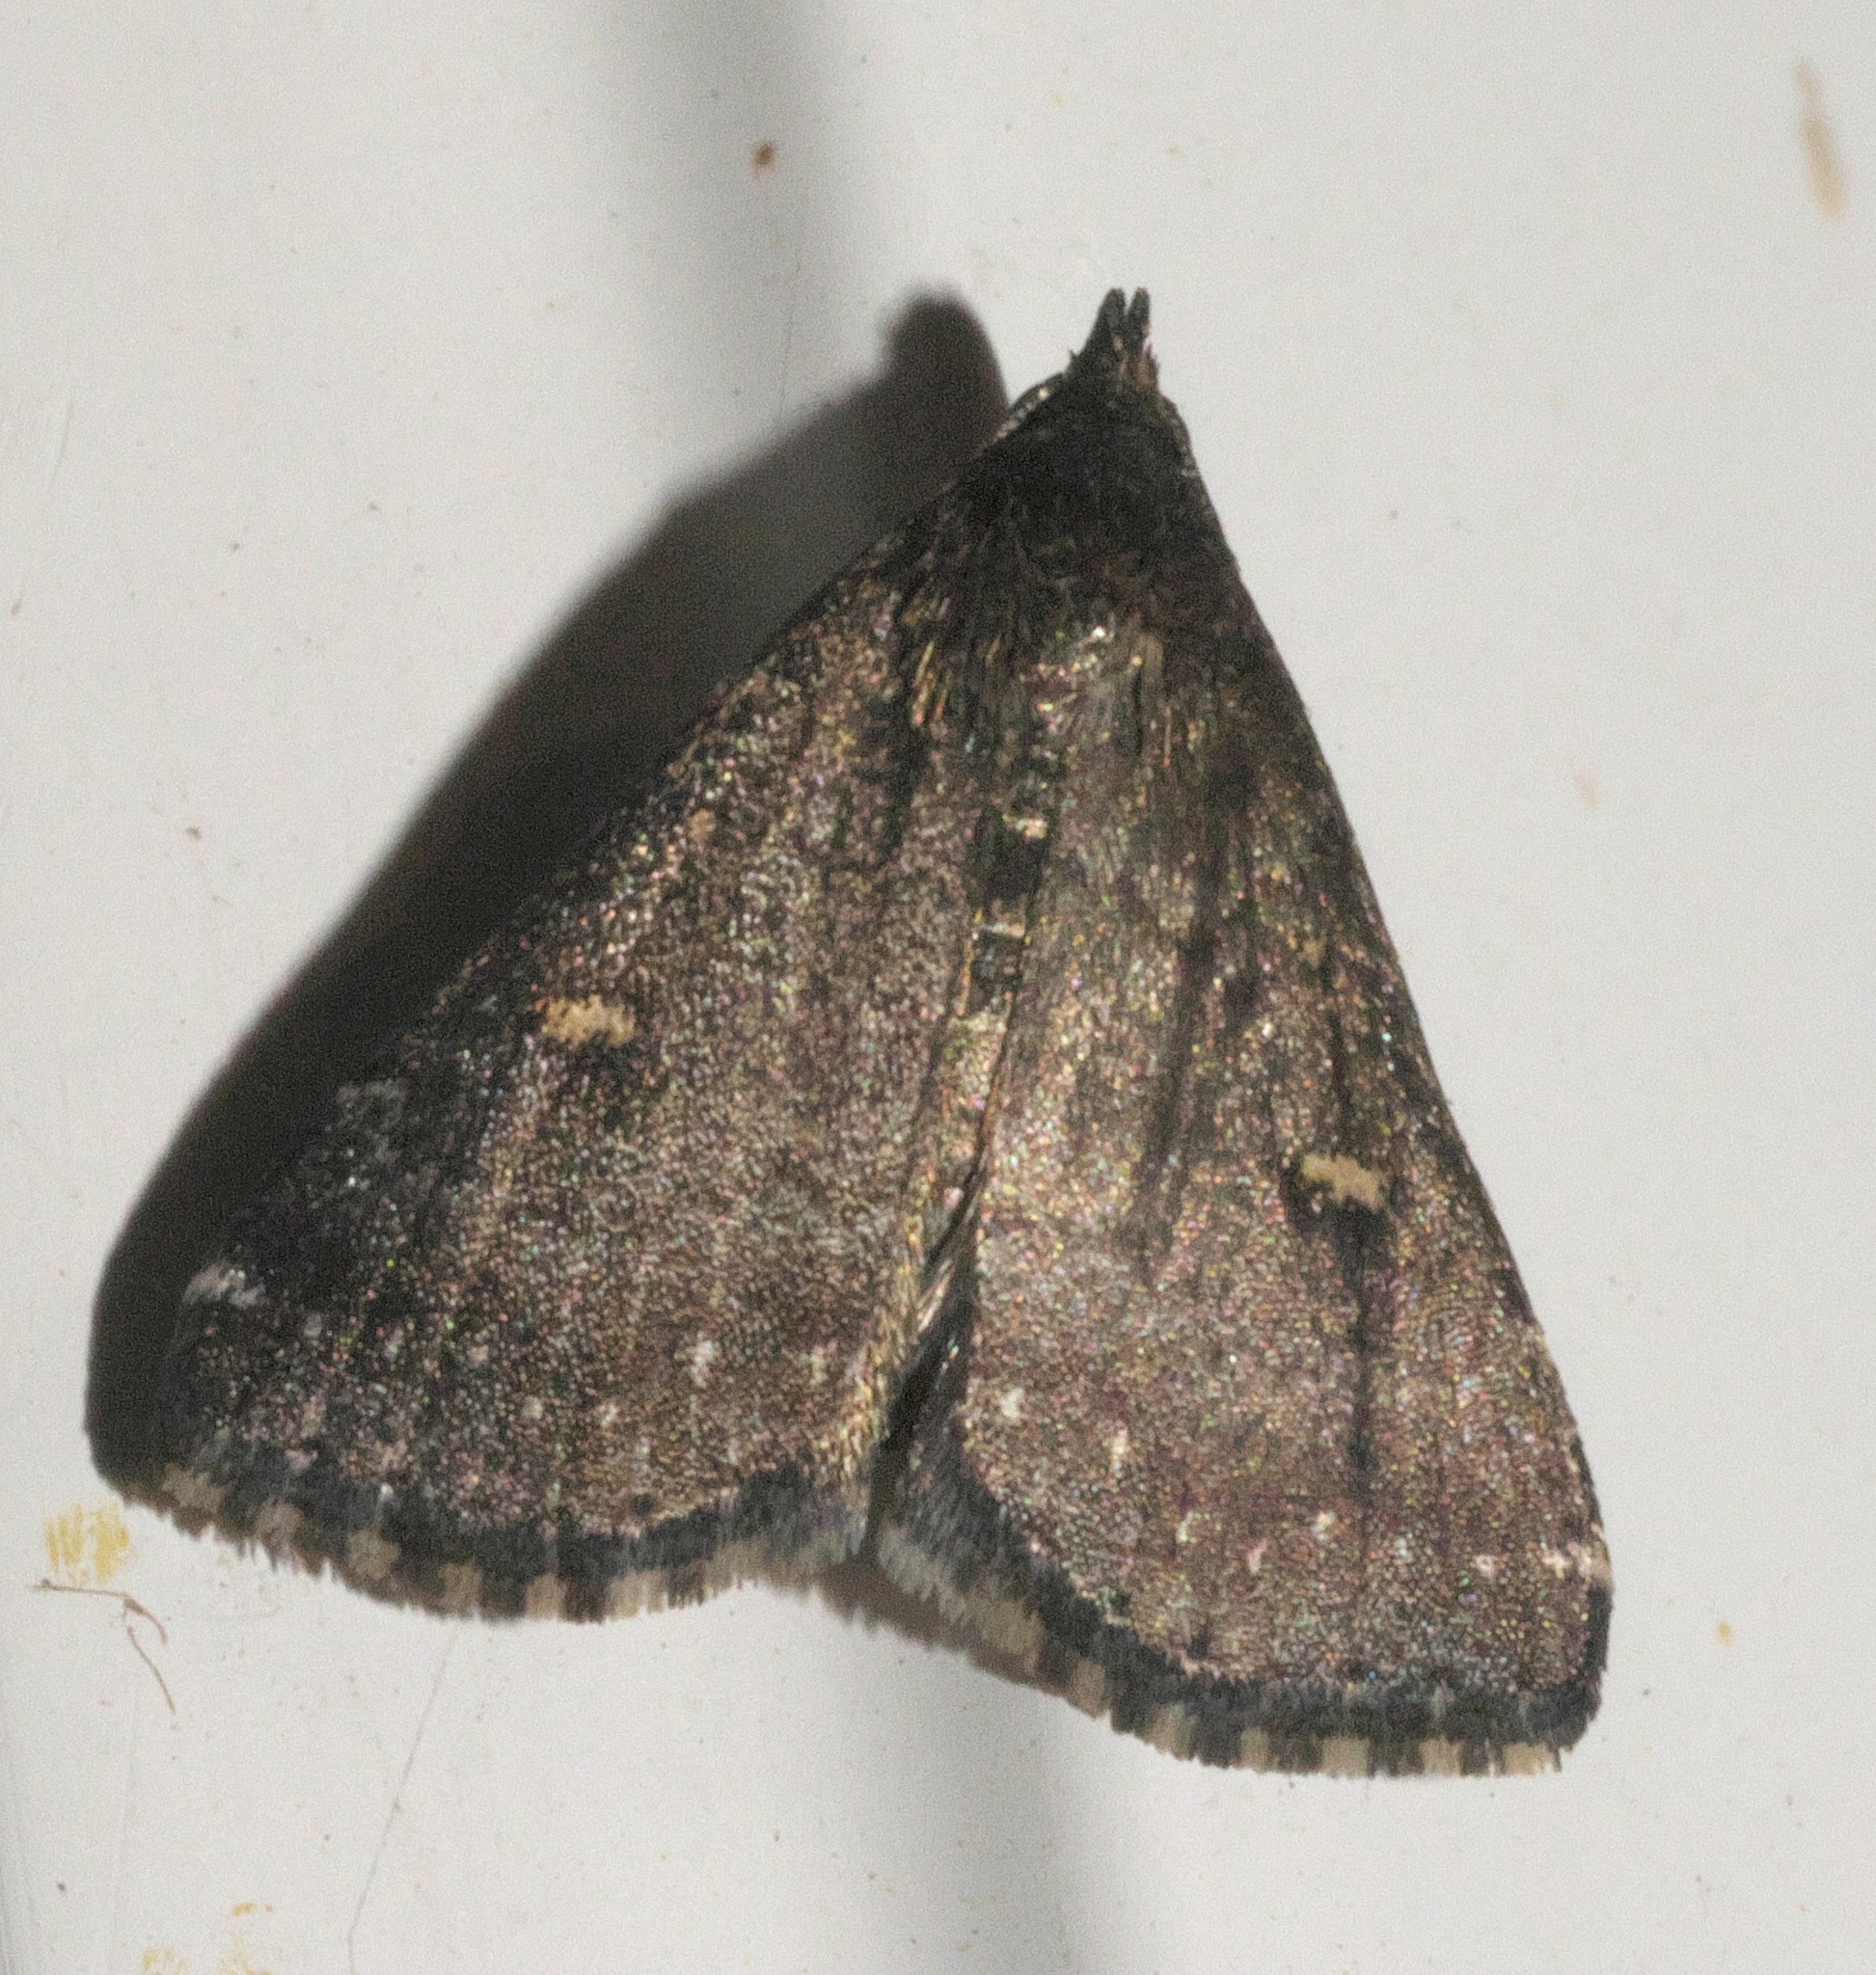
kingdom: Animalia
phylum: Arthropoda
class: Insecta
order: Lepidoptera
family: Erebidae
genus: Tetanolita
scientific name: Tetanolita mynesalis
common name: Smoky tetanolita moth
